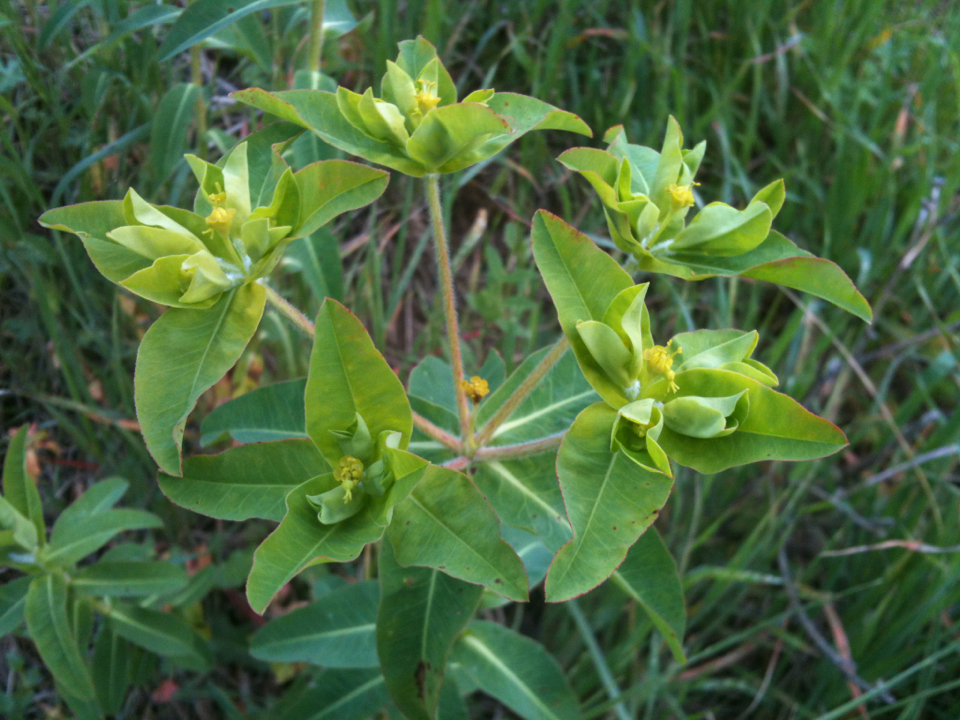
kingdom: Plantae
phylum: Tracheophyta
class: Magnoliopsida
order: Malpighiales
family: Euphorbiaceae
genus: Euphorbia
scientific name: Euphorbia oblongata
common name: Balkan spurge
